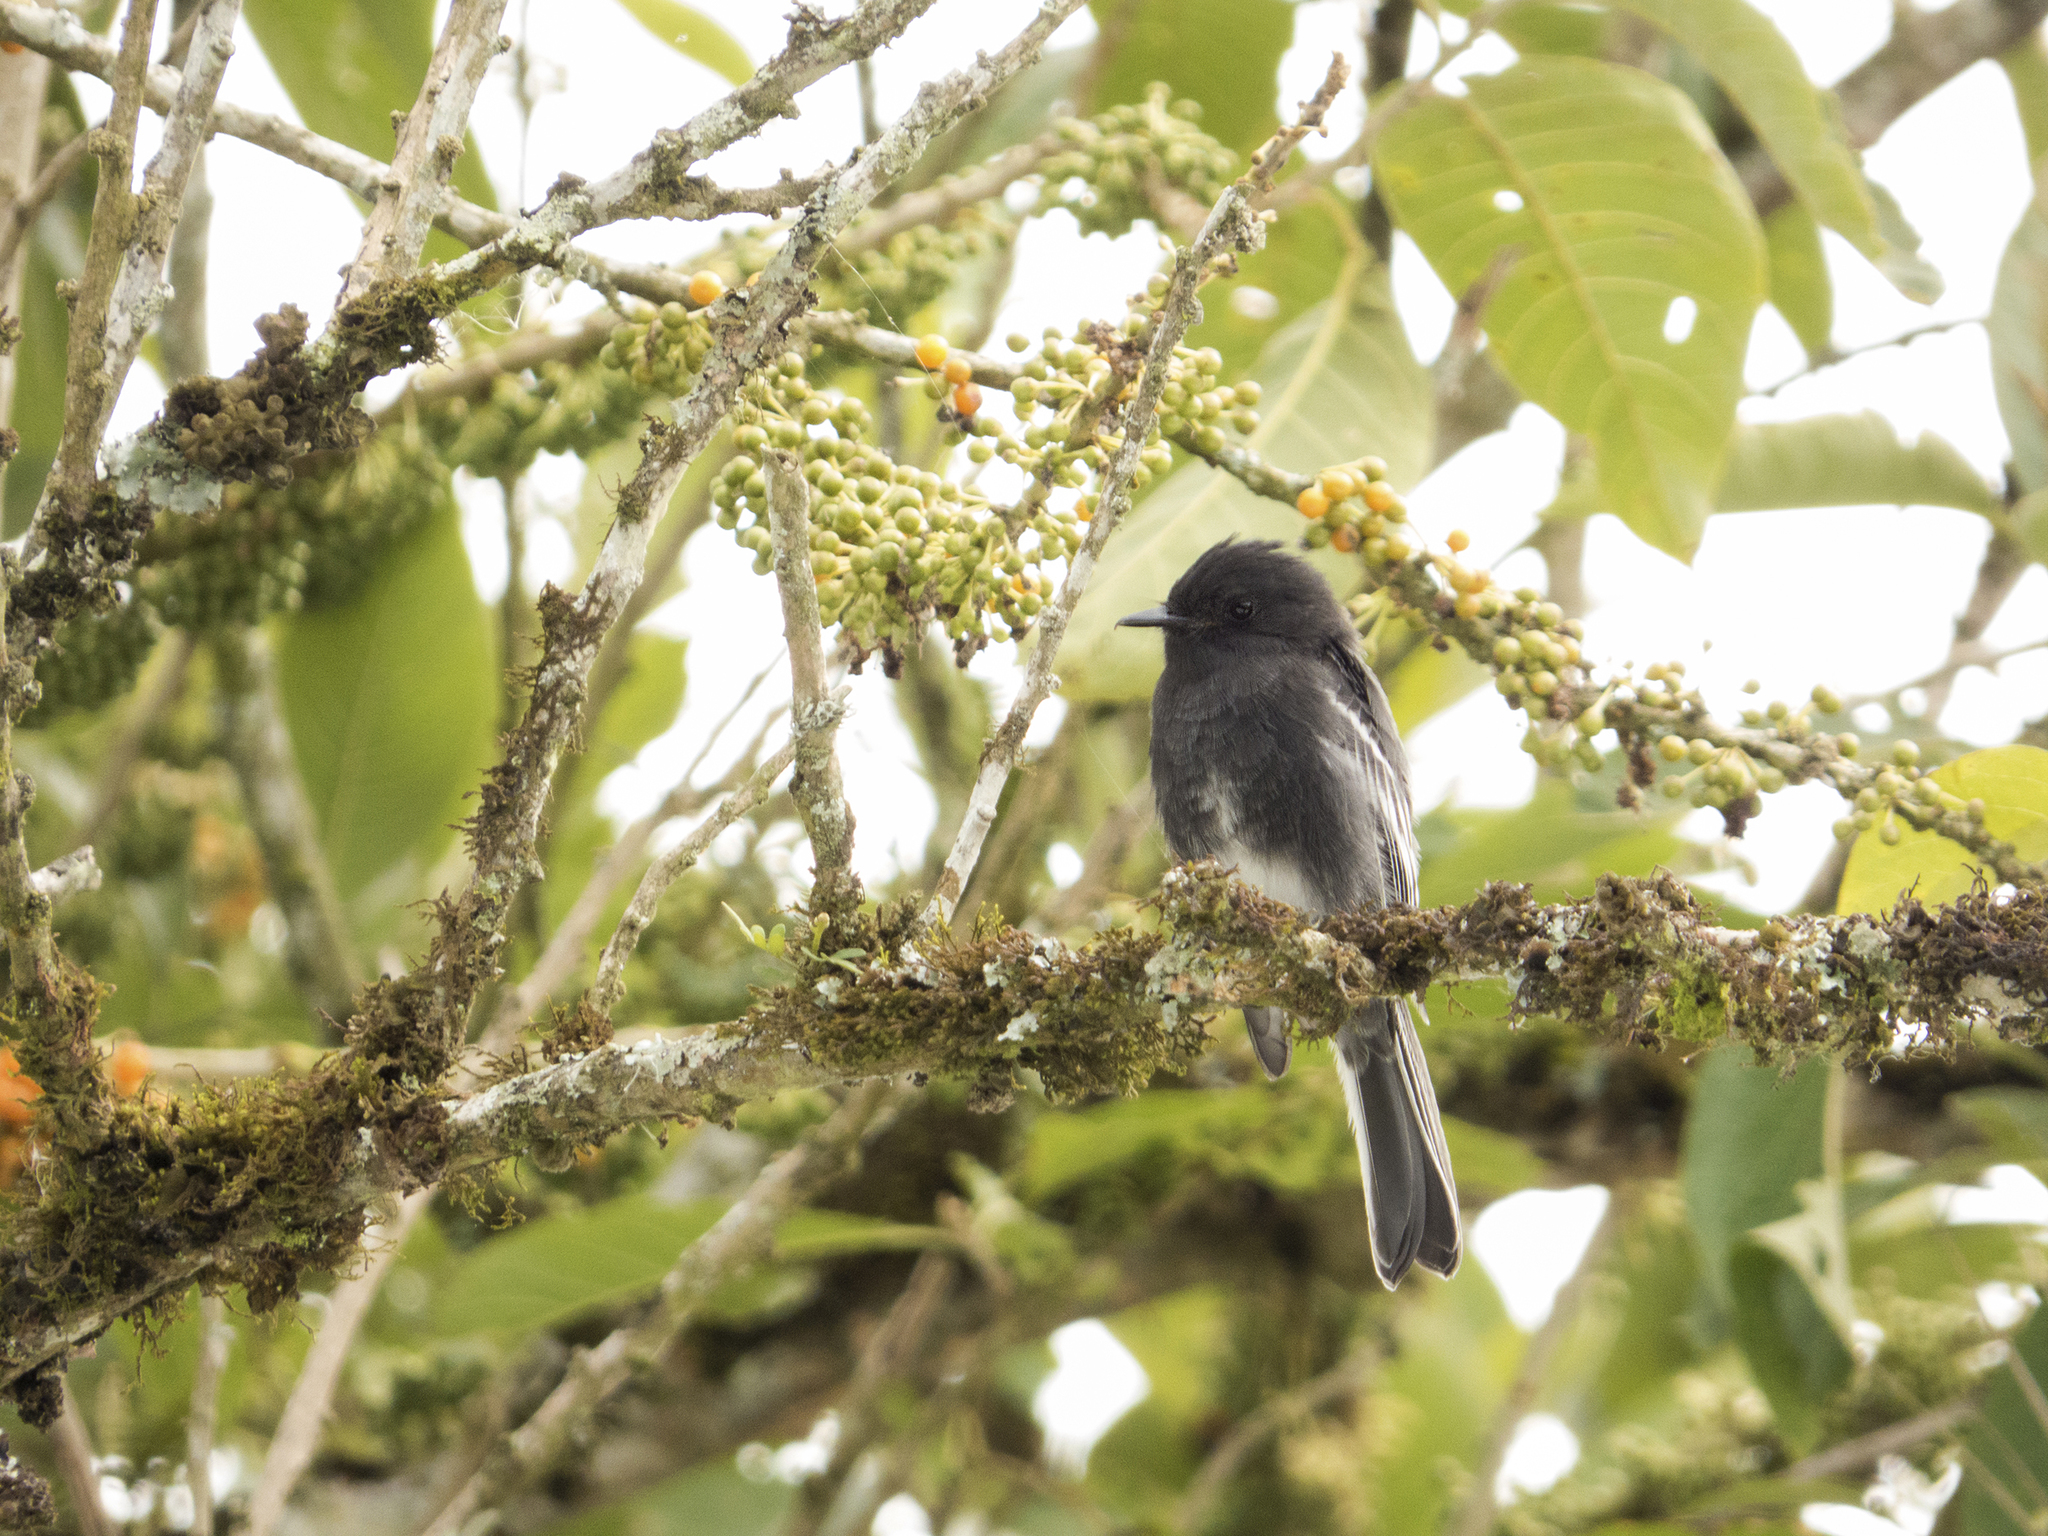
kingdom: Animalia
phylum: Chordata
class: Aves
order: Passeriformes
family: Tyrannidae
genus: Sayornis
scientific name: Sayornis nigricans
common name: Black phoebe
